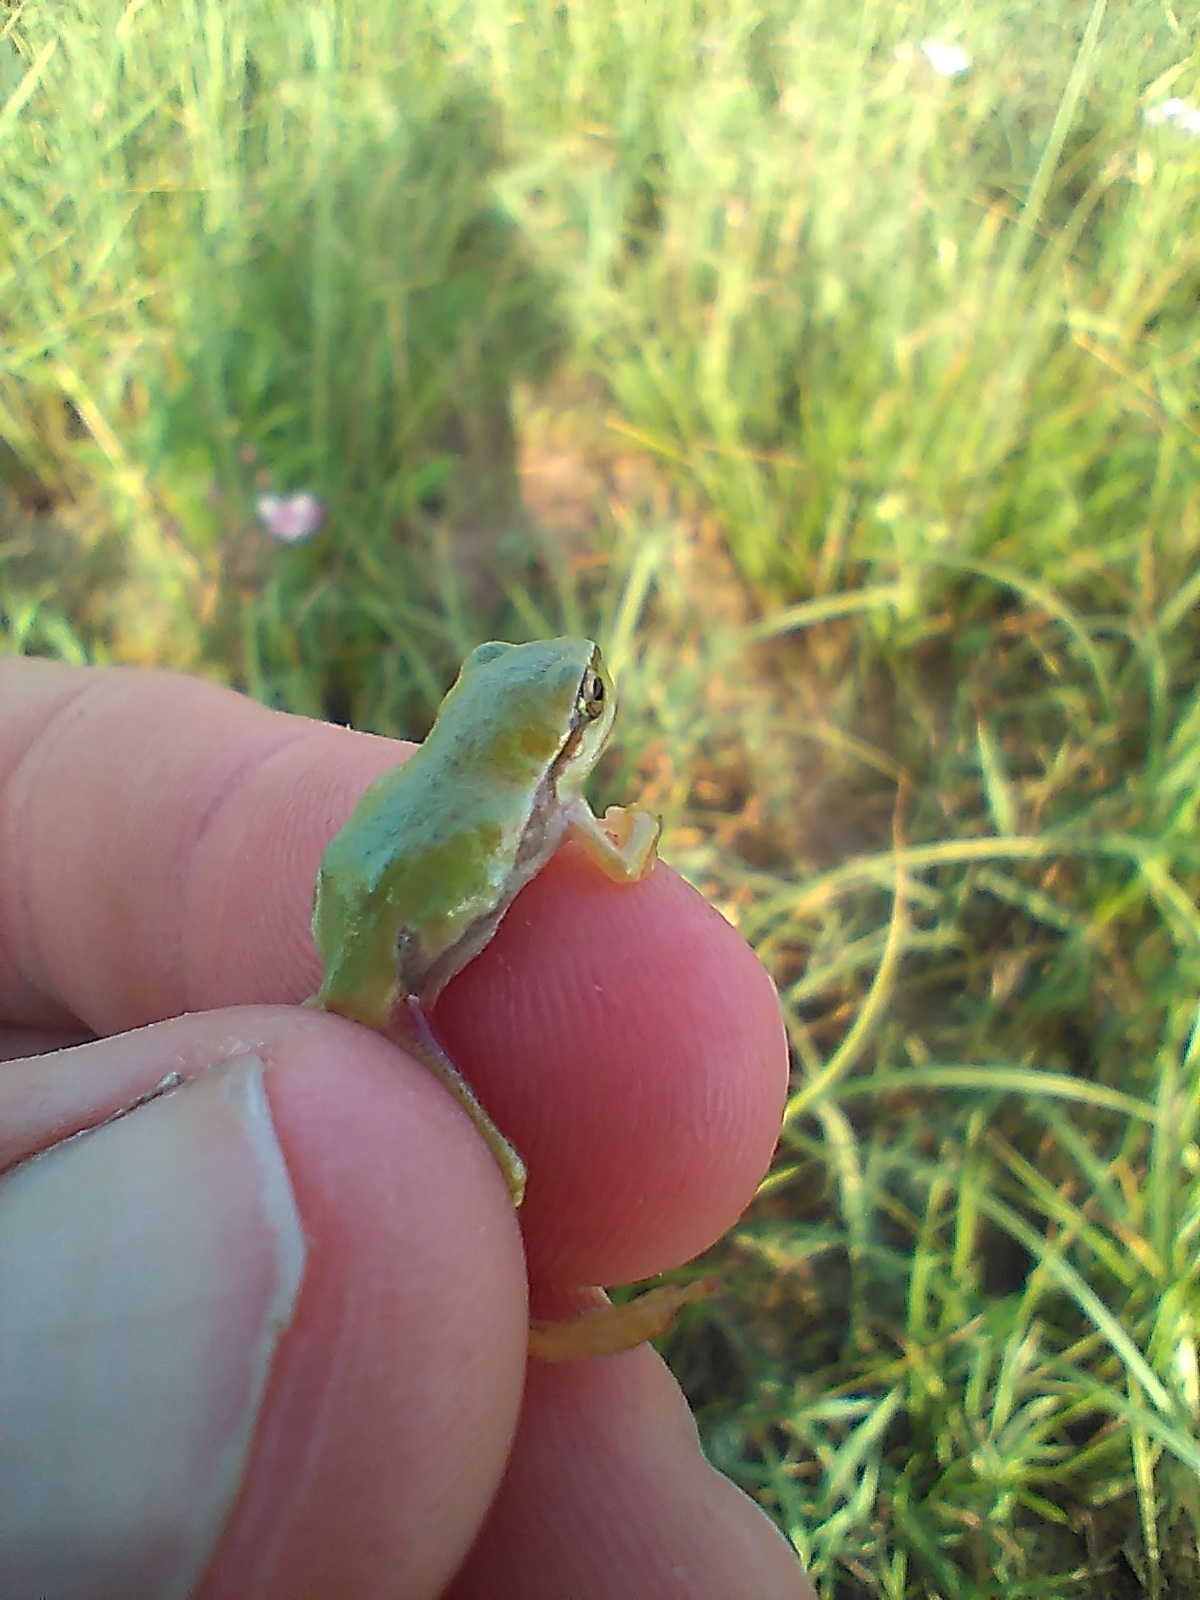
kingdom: Animalia
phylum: Chordata
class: Amphibia
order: Anura
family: Hylidae
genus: Hyla
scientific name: Hyla arborea
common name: Common tree frog
